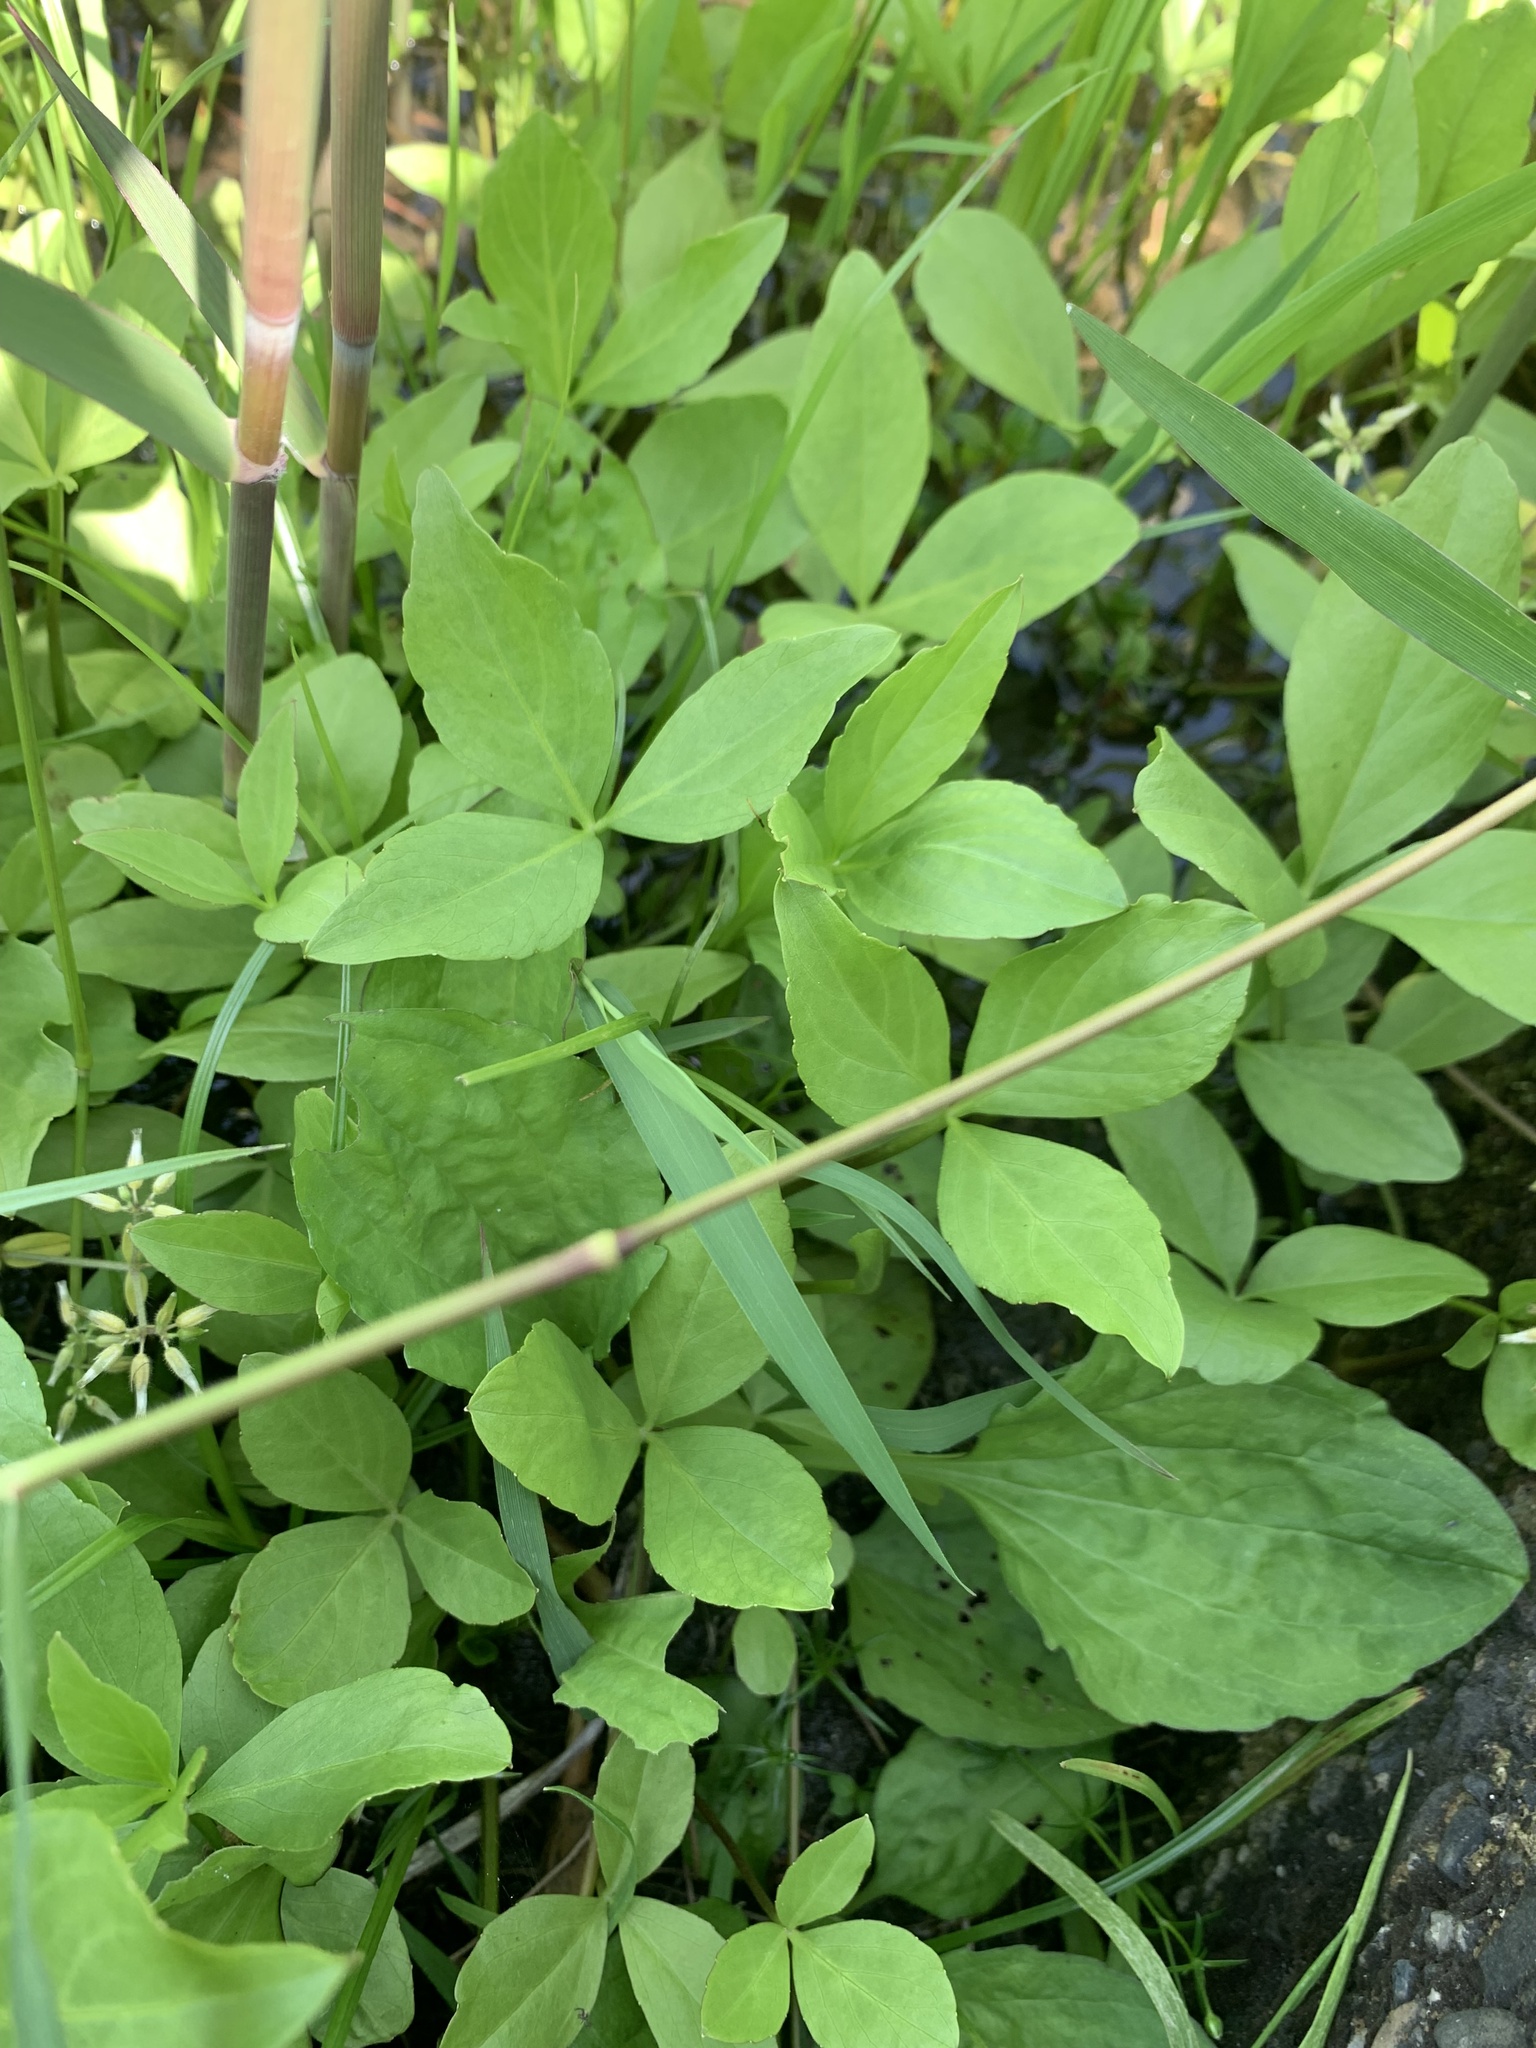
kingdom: Plantae
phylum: Tracheophyta
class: Magnoliopsida
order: Asterales
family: Menyanthaceae
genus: Menyanthes
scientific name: Menyanthes trifoliata
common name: Bogbean
